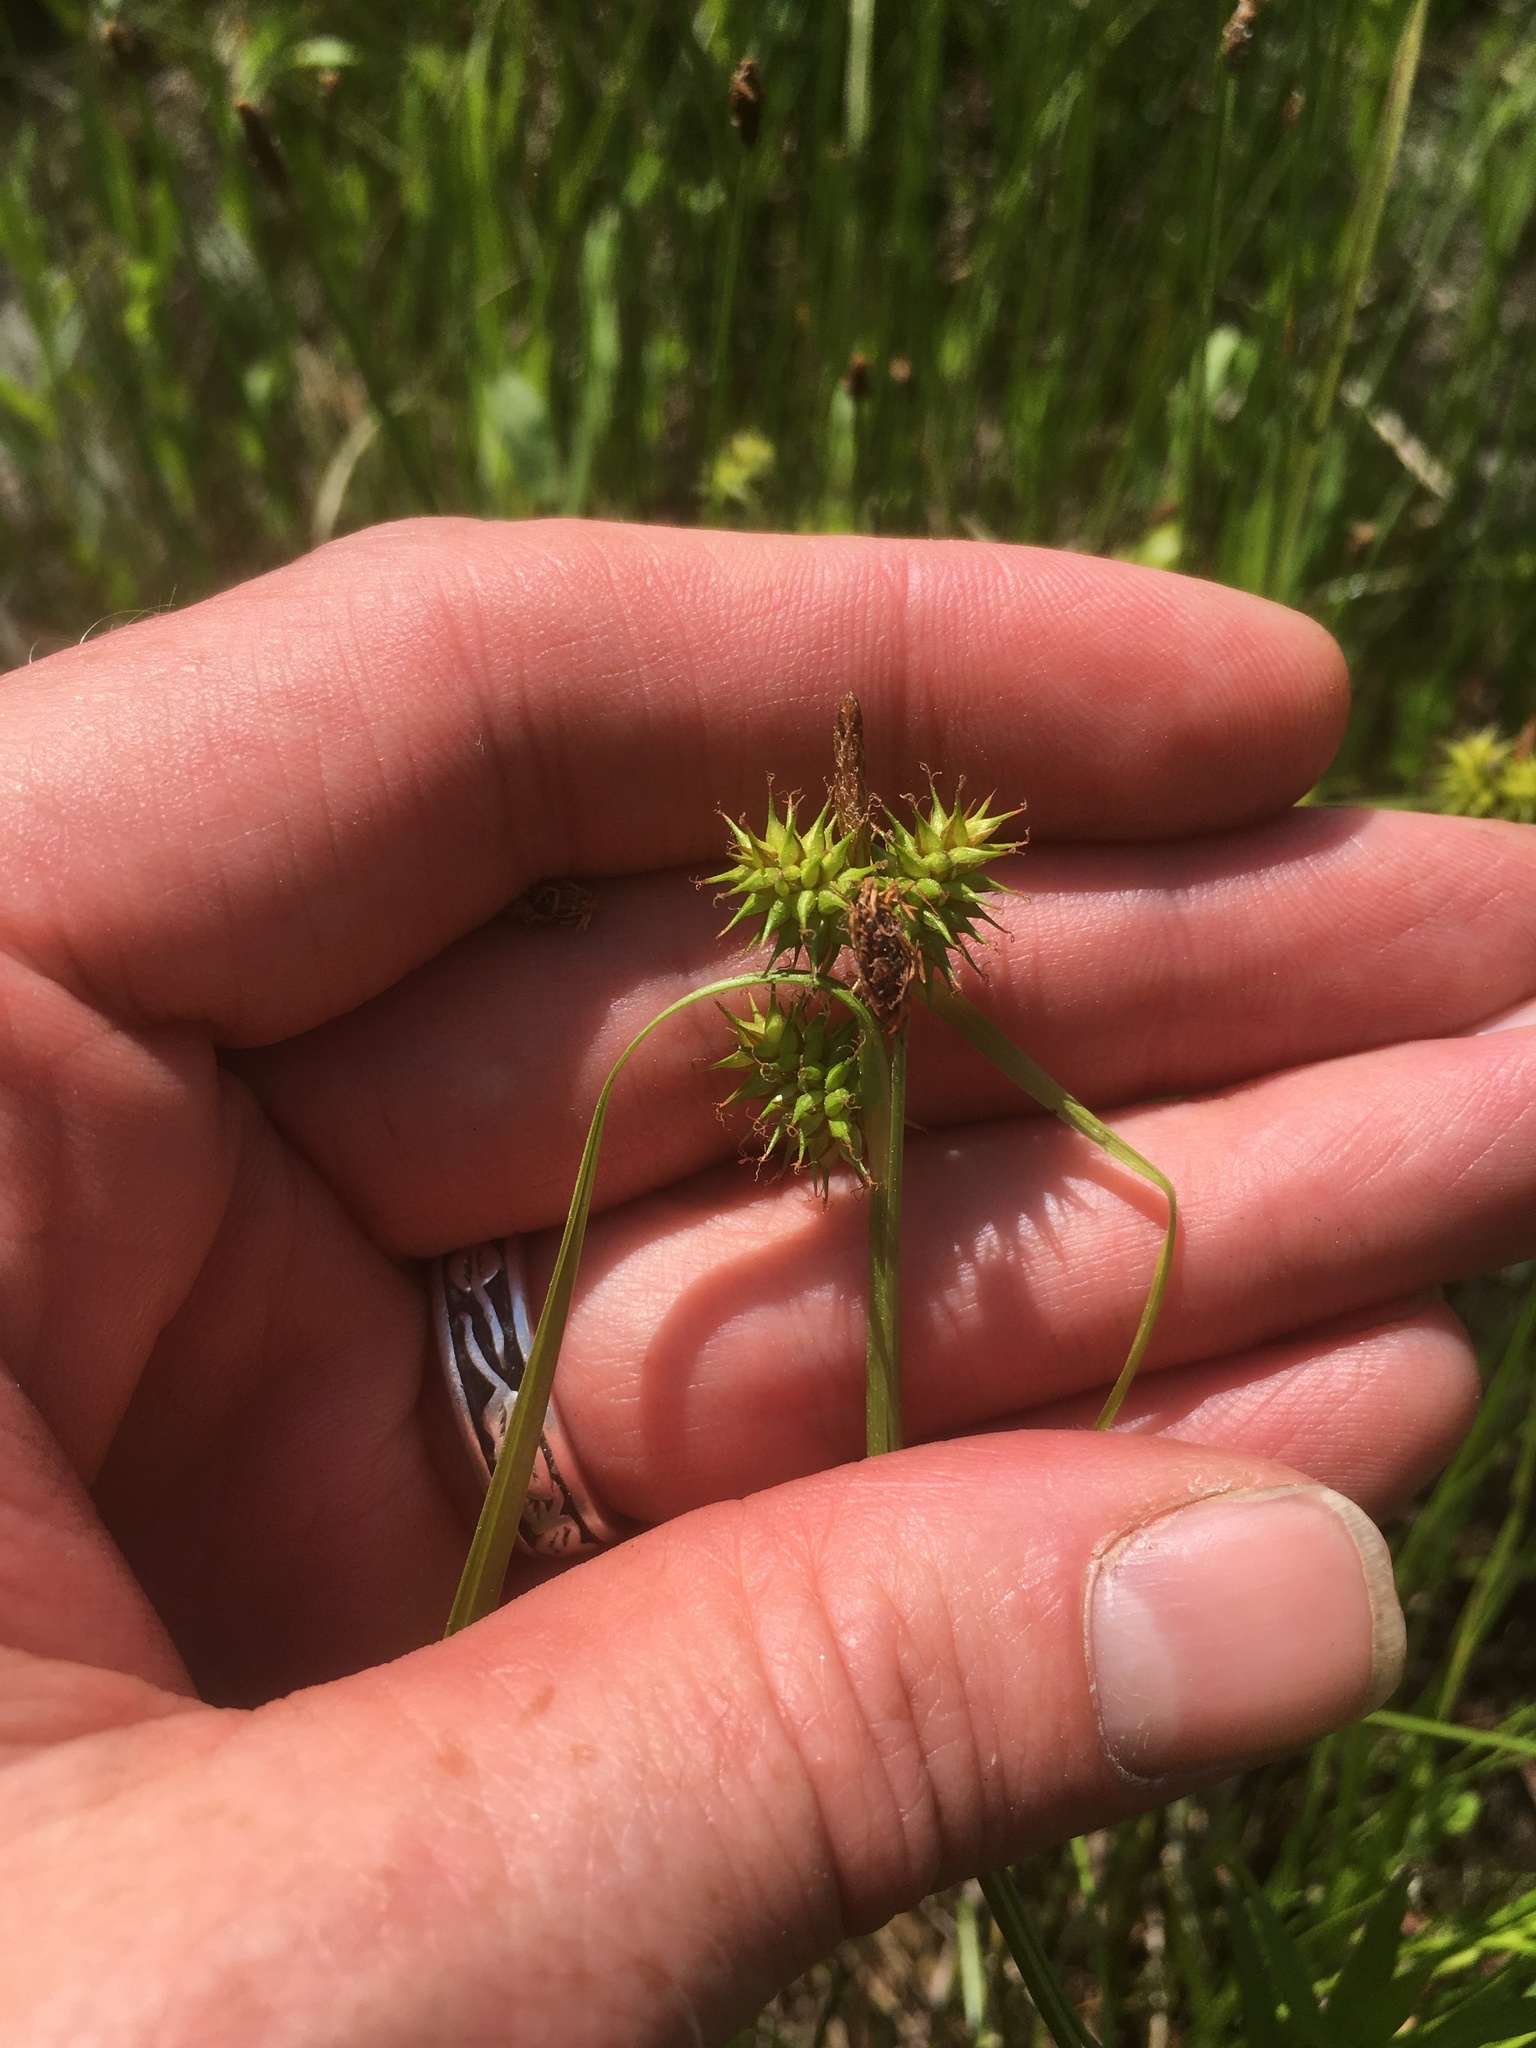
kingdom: Plantae
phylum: Tracheophyta
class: Liliopsida
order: Poales
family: Cyperaceae
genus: Carex
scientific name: Carex flava
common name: Large yellow-sedge
